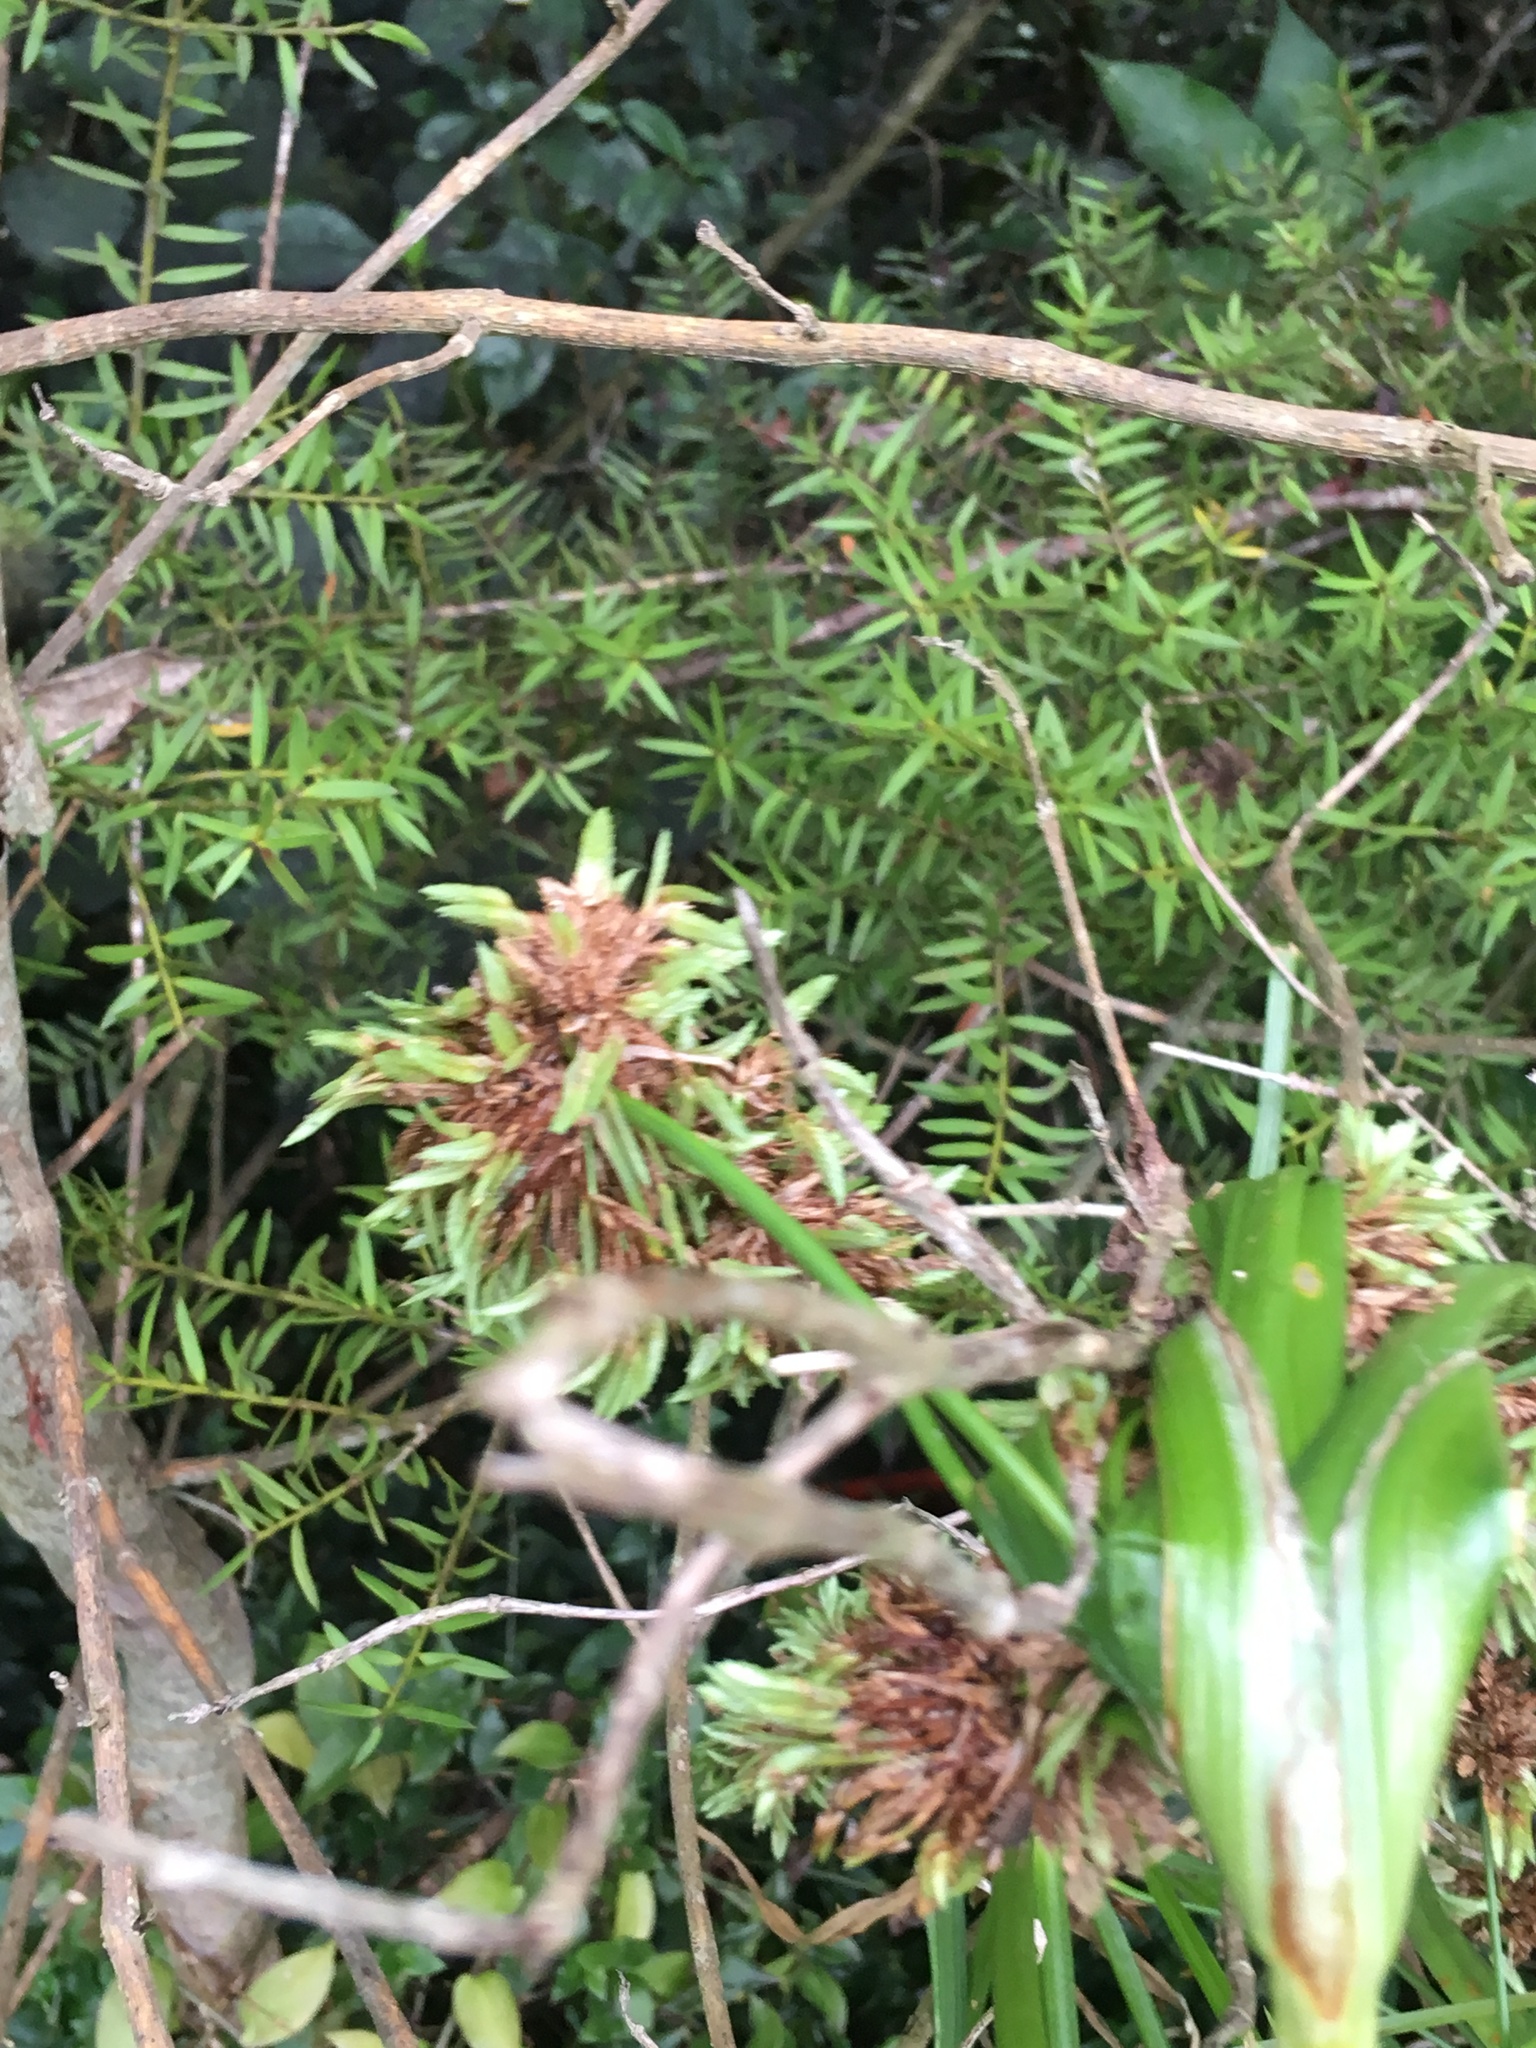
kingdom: Plantae
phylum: Tracheophyta
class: Liliopsida
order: Poales
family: Cyperaceae
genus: Cyperus
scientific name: Cyperus eragrostis
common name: Tall flatsedge
